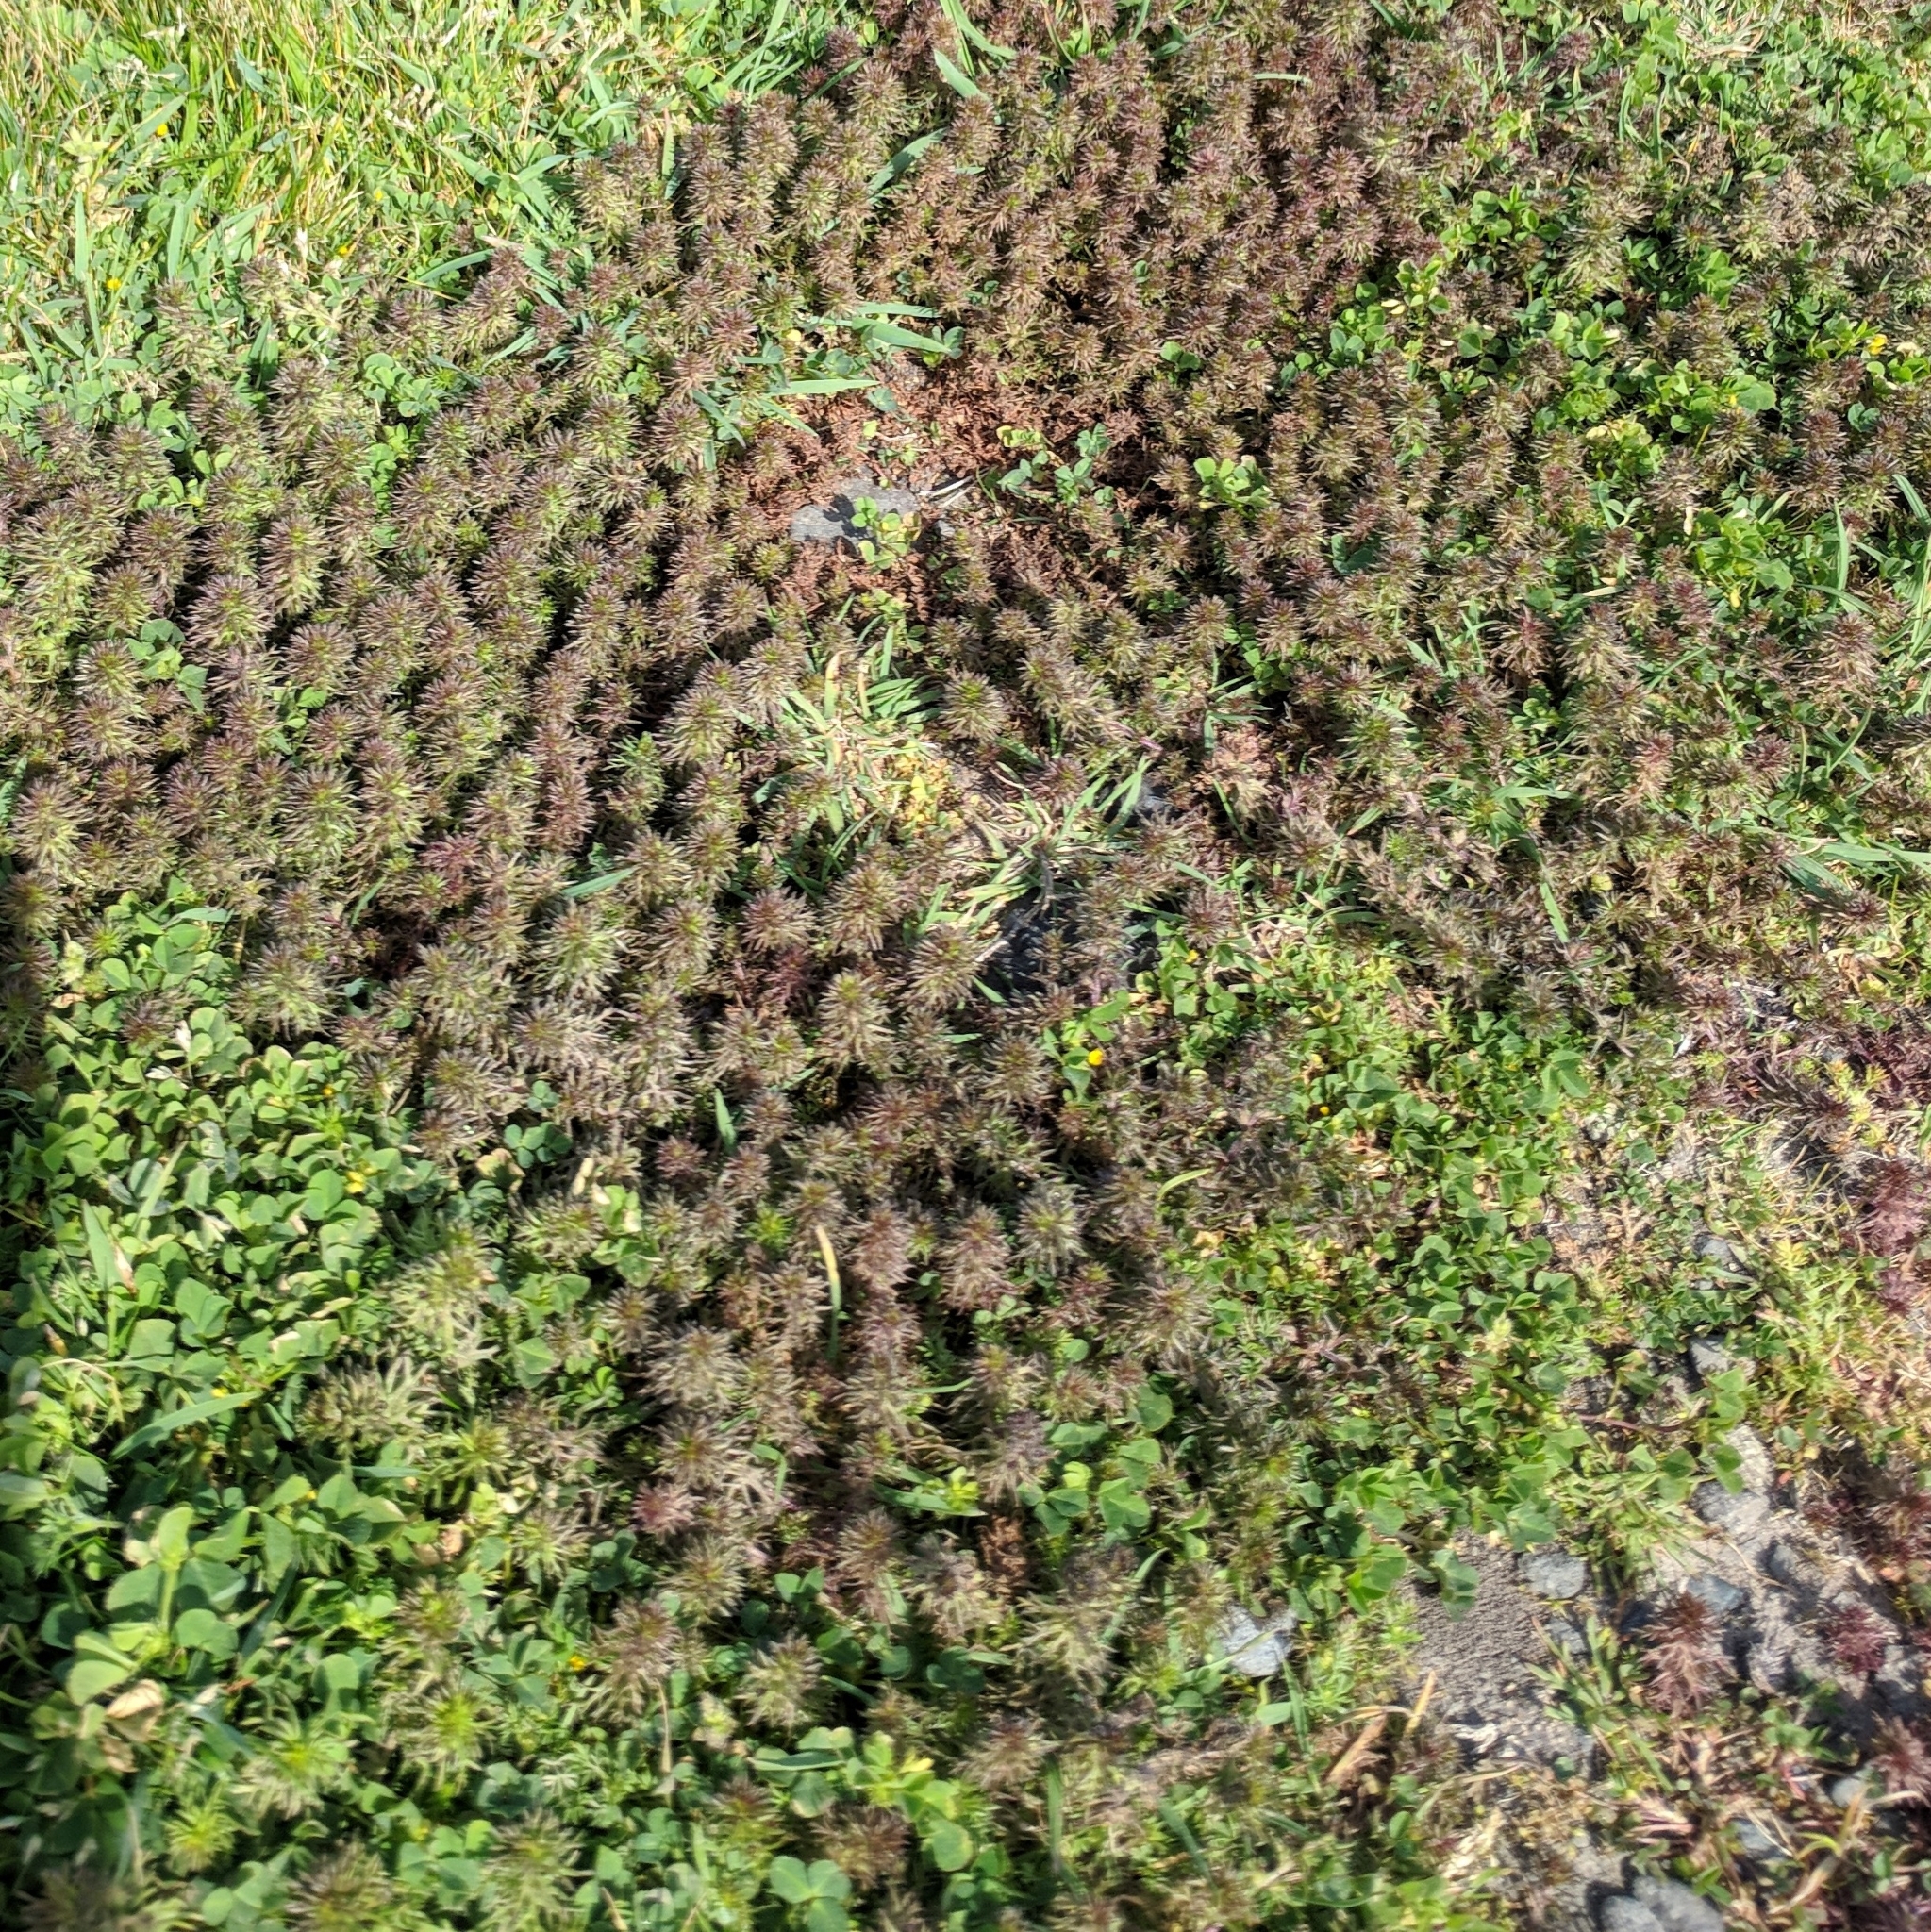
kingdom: Plantae
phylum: Tracheophyta
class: Magnoliopsida
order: Lamiales
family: Orobanchaceae
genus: Triphysaria
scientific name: Triphysaria pusilla
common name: Dwarf false owl-clover
